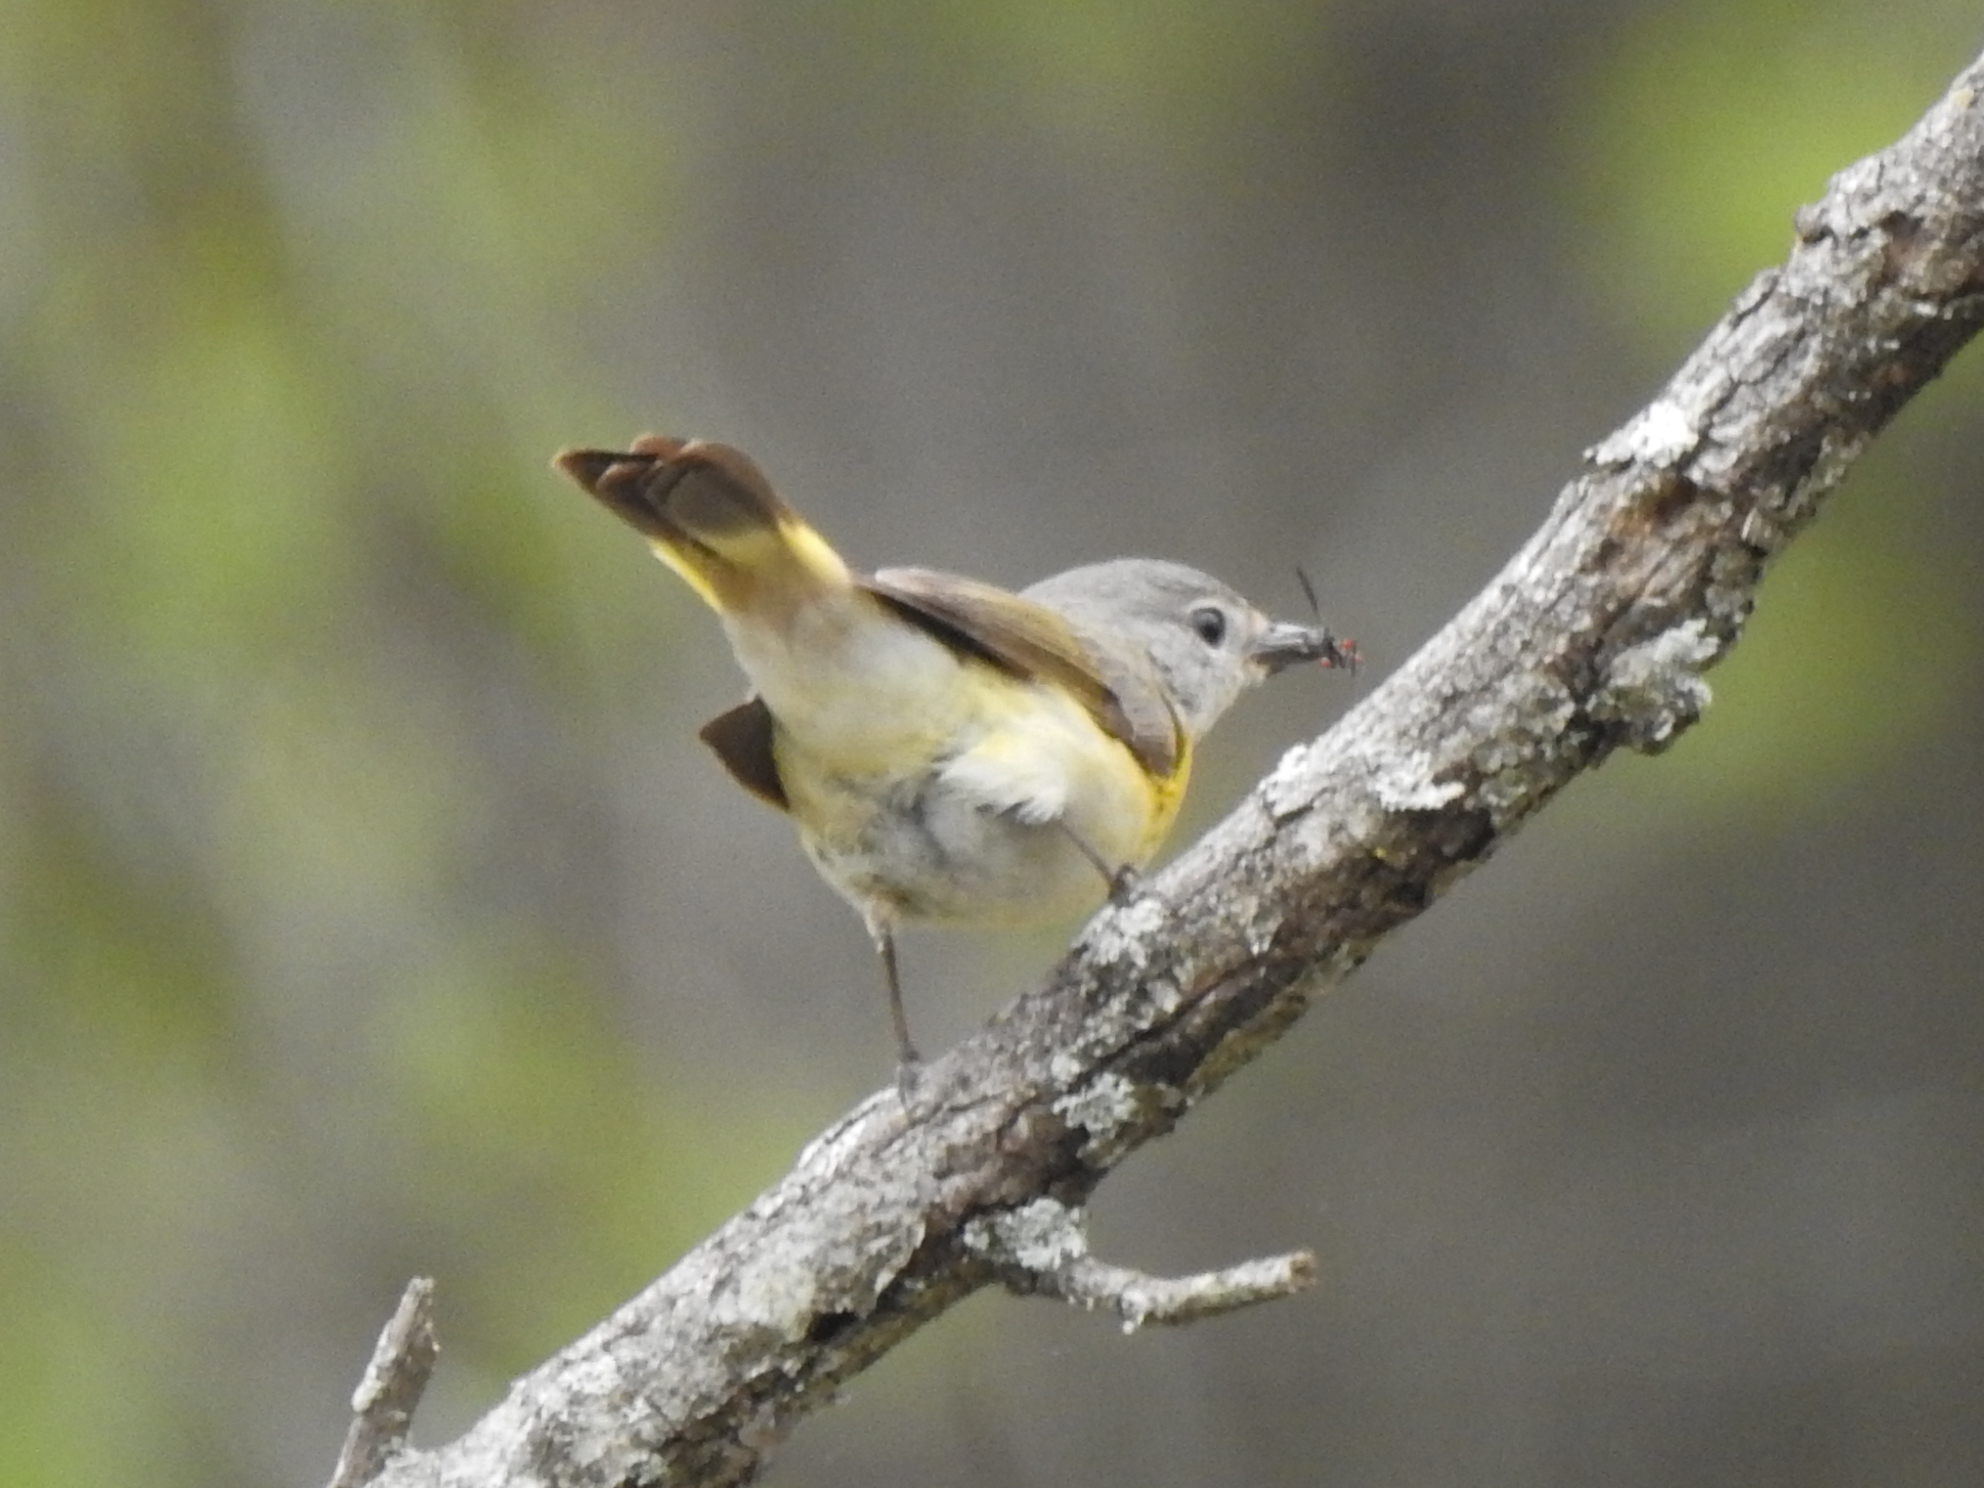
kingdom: Animalia
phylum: Chordata
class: Aves
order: Passeriformes
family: Parulidae
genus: Setophaga
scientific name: Setophaga ruticilla
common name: American redstart
